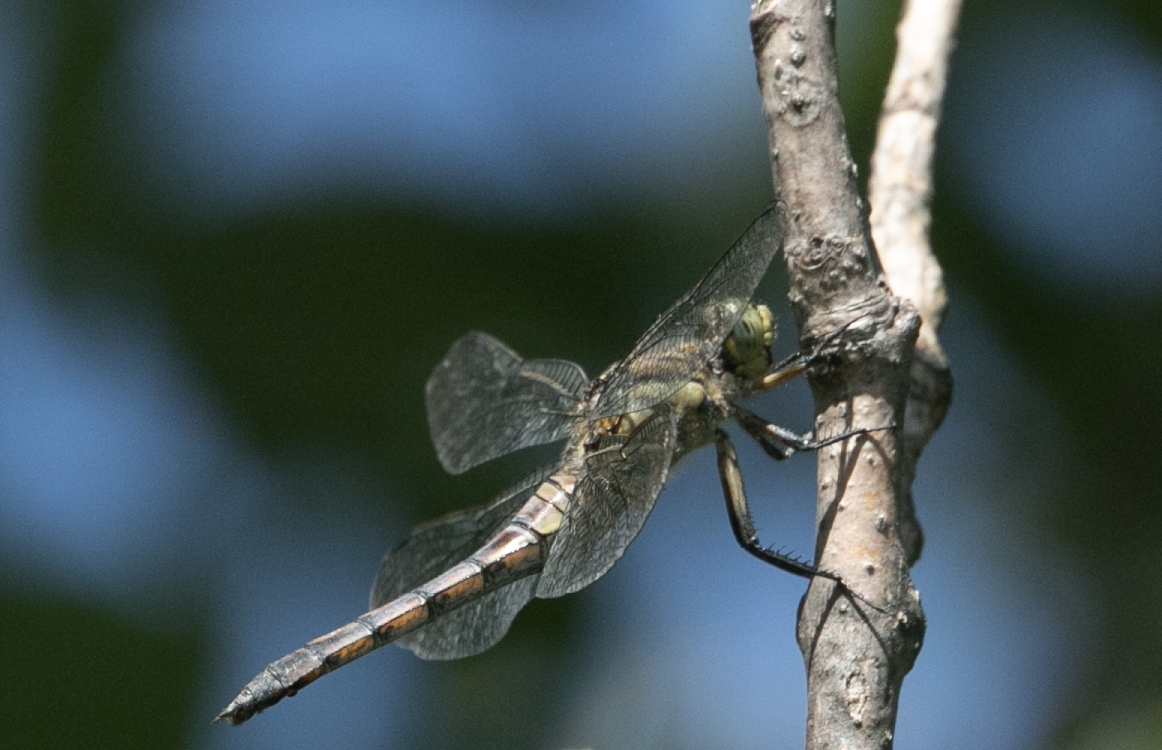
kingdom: Animalia
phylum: Arthropoda
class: Insecta
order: Odonata
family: Libellulidae
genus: Orthetrum
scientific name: Orthetrum cancellatum
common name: Black-tailed skimmer
